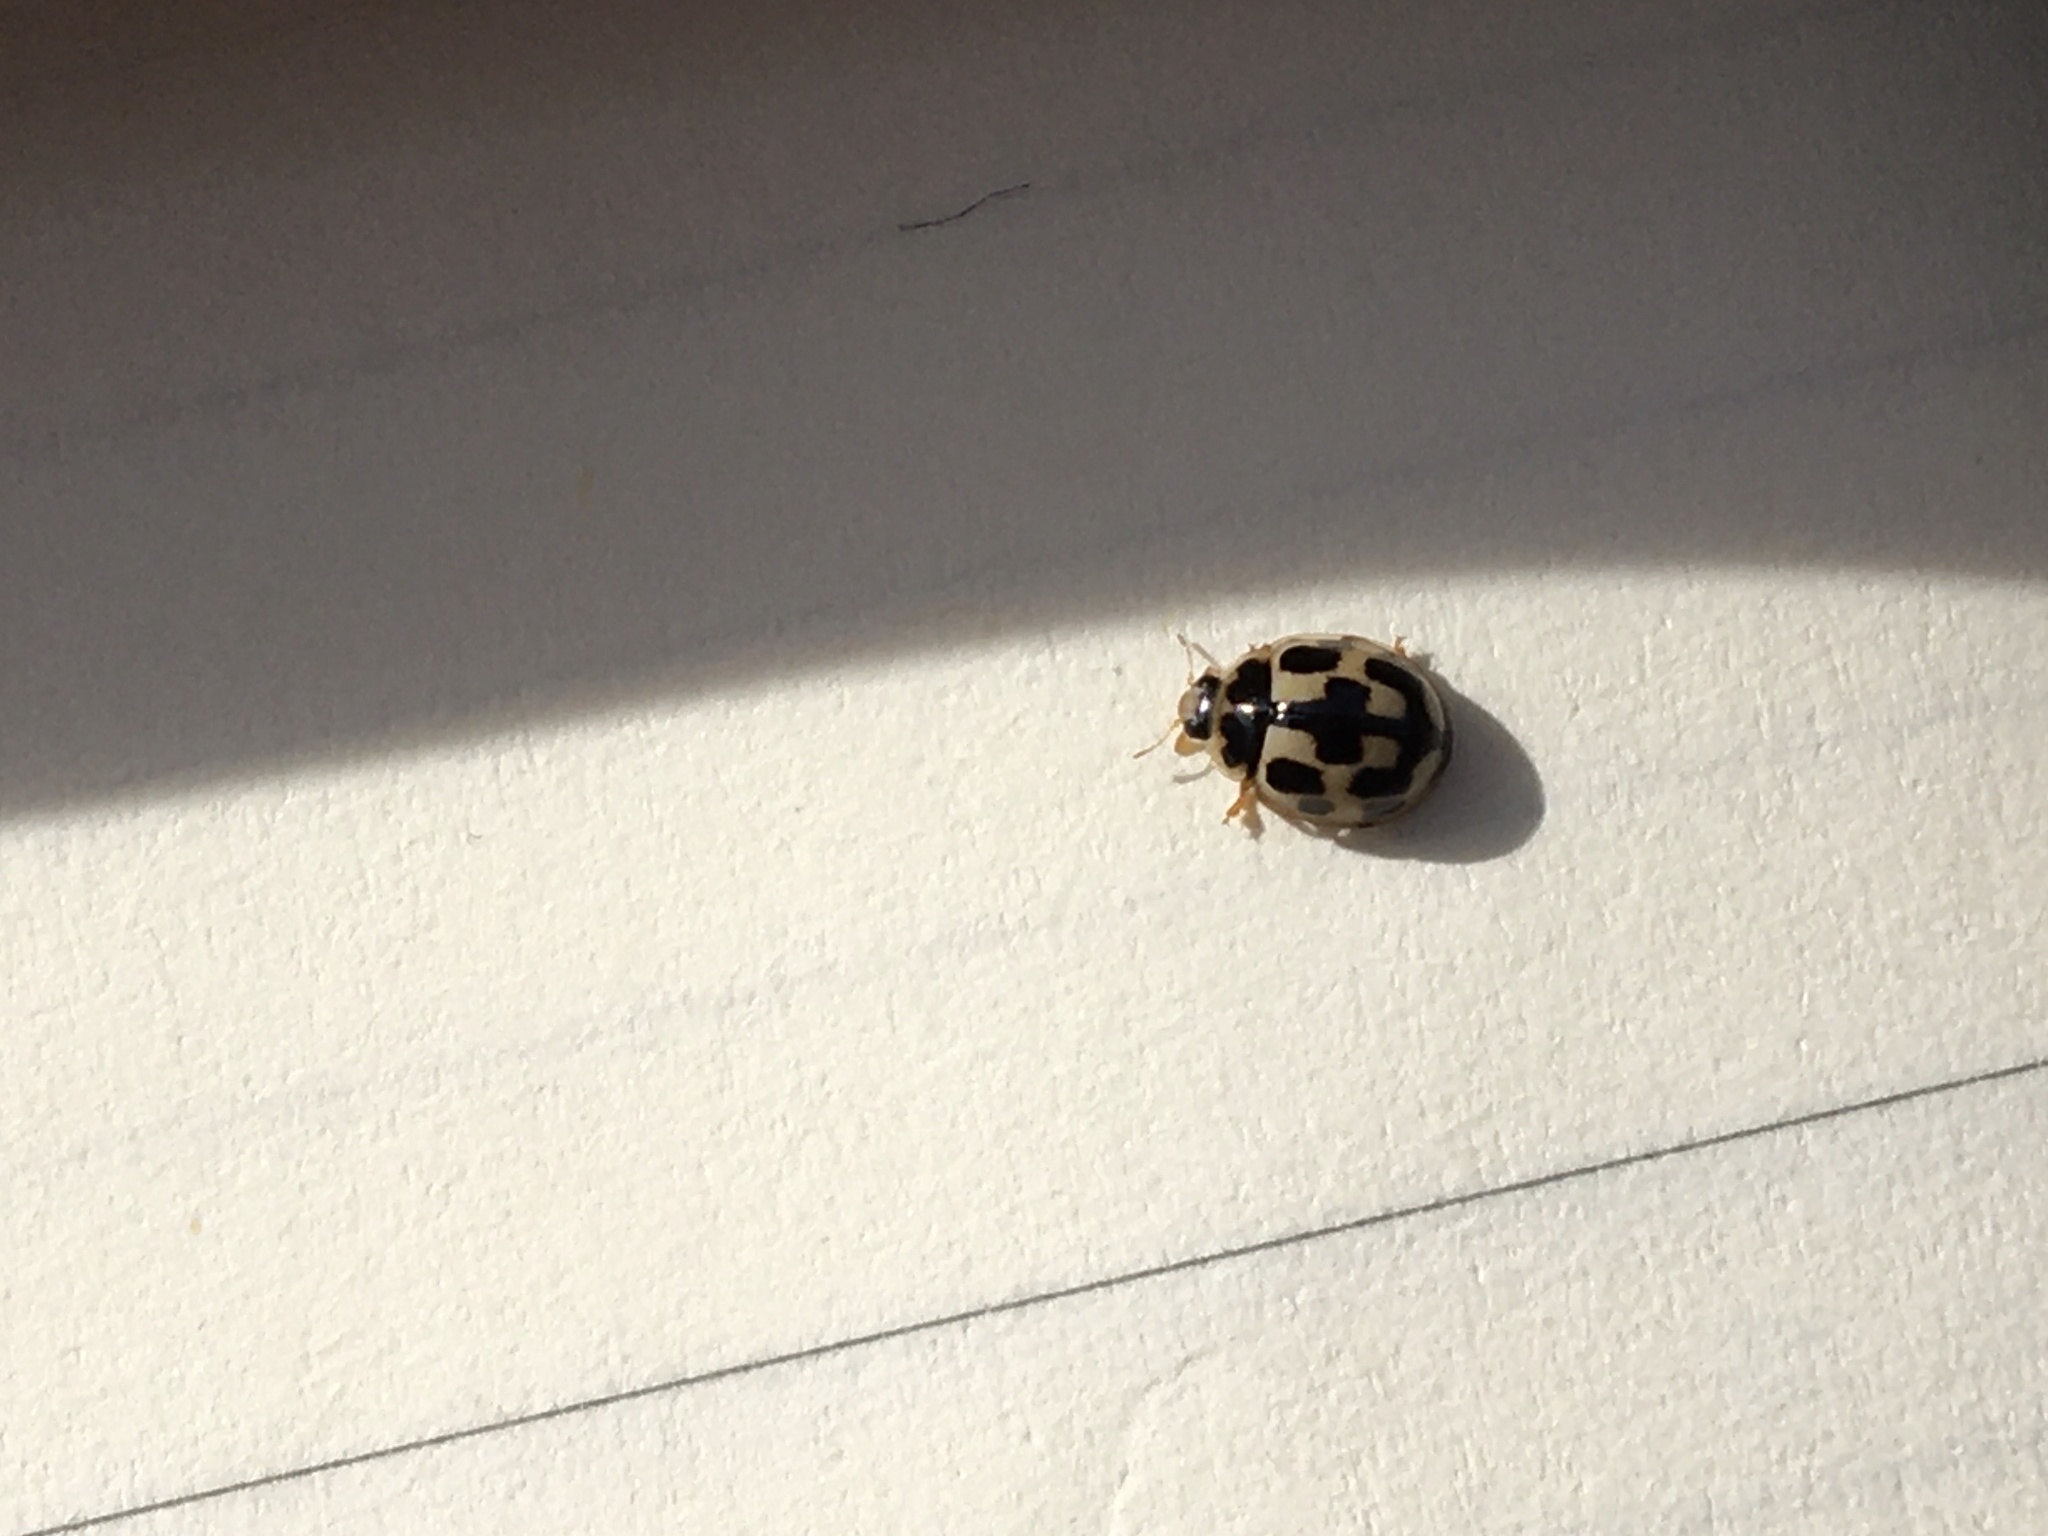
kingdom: Animalia
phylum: Arthropoda
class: Insecta
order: Coleoptera
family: Coccinellidae
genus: Propylaea
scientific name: Propylaea quatuordecimpunctata
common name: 14-spotted ladybird beetle
